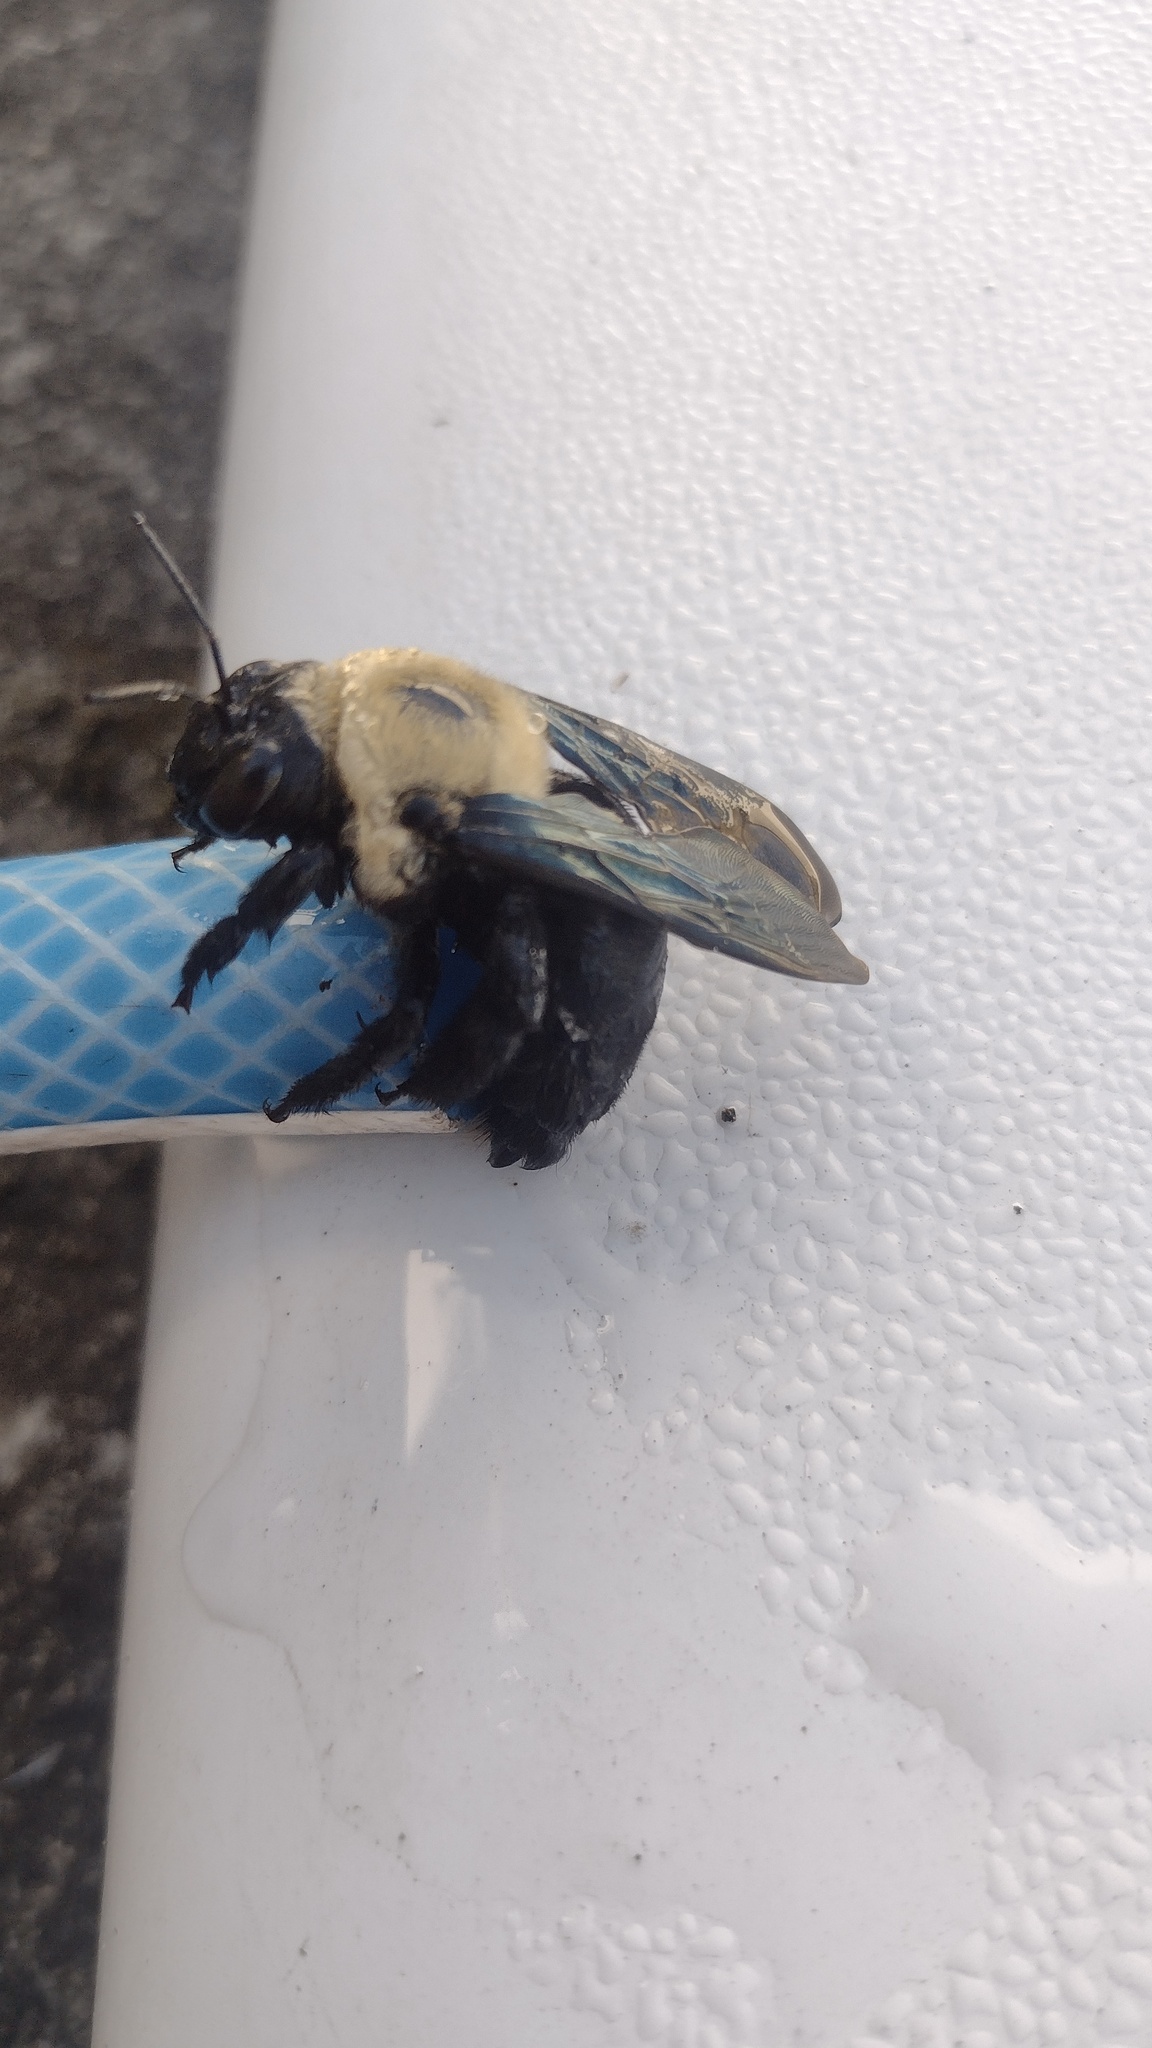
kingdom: Animalia
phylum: Arthropoda
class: Insecta
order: Hymenoptera
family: Apidae
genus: Xylocopa
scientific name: Xylocopa grisescens
